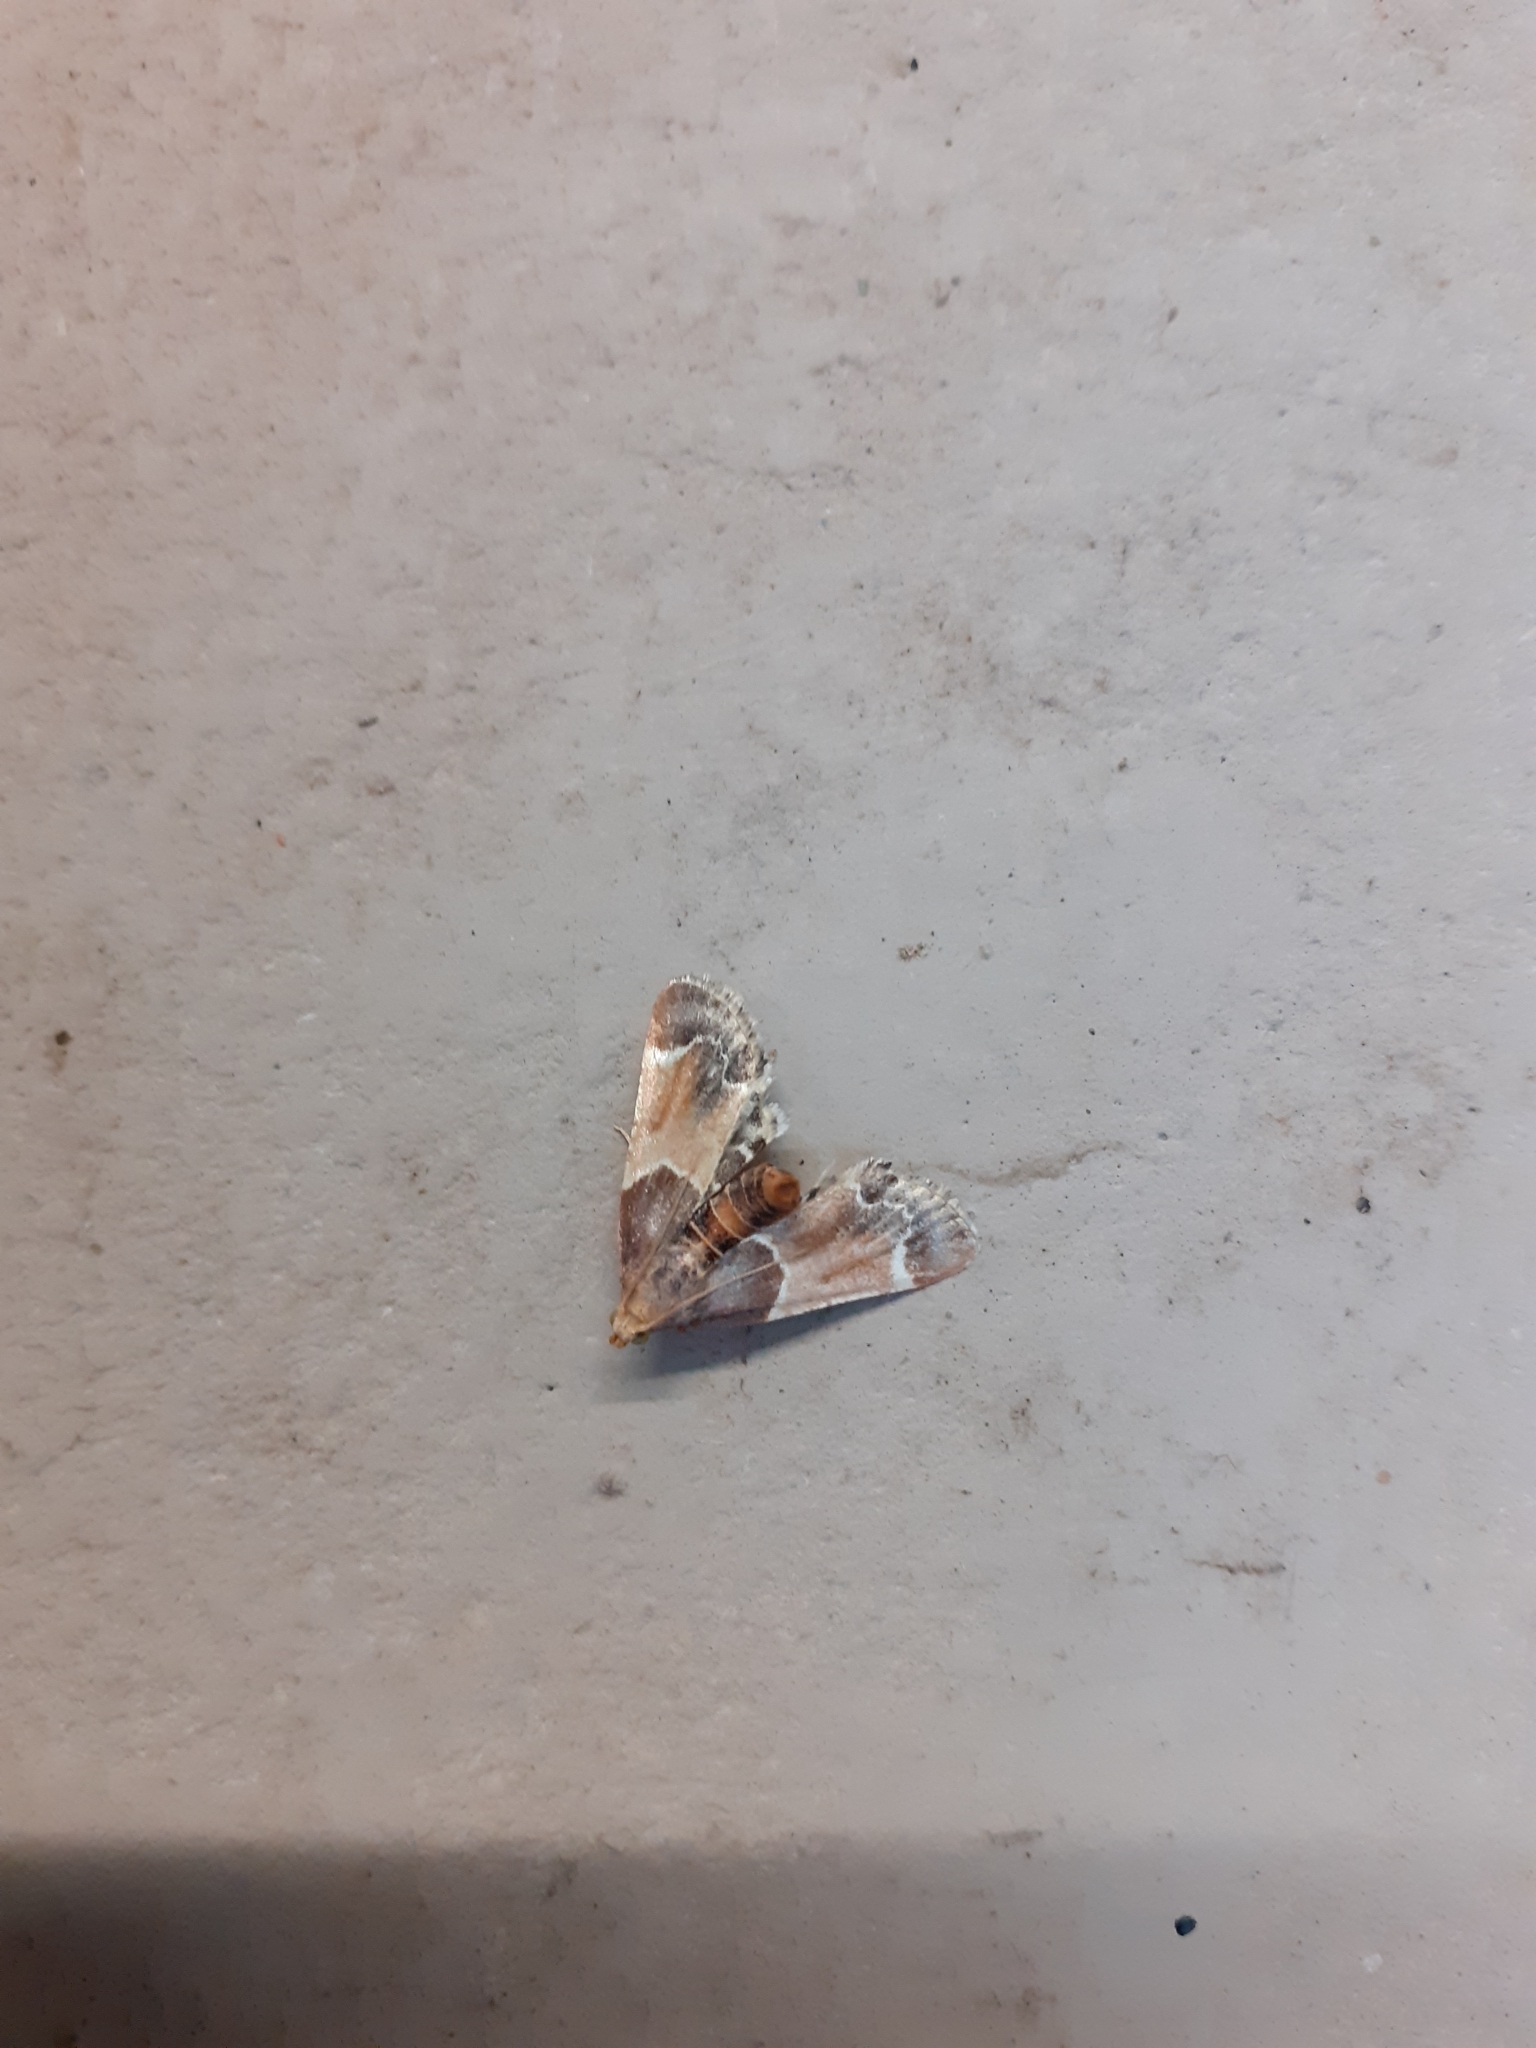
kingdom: Animalia
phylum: Arthropoda
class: Insecta
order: Lepidoptera
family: Pyralidae
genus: Pyralis
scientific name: Pyralis farinalis
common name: Meal moth
